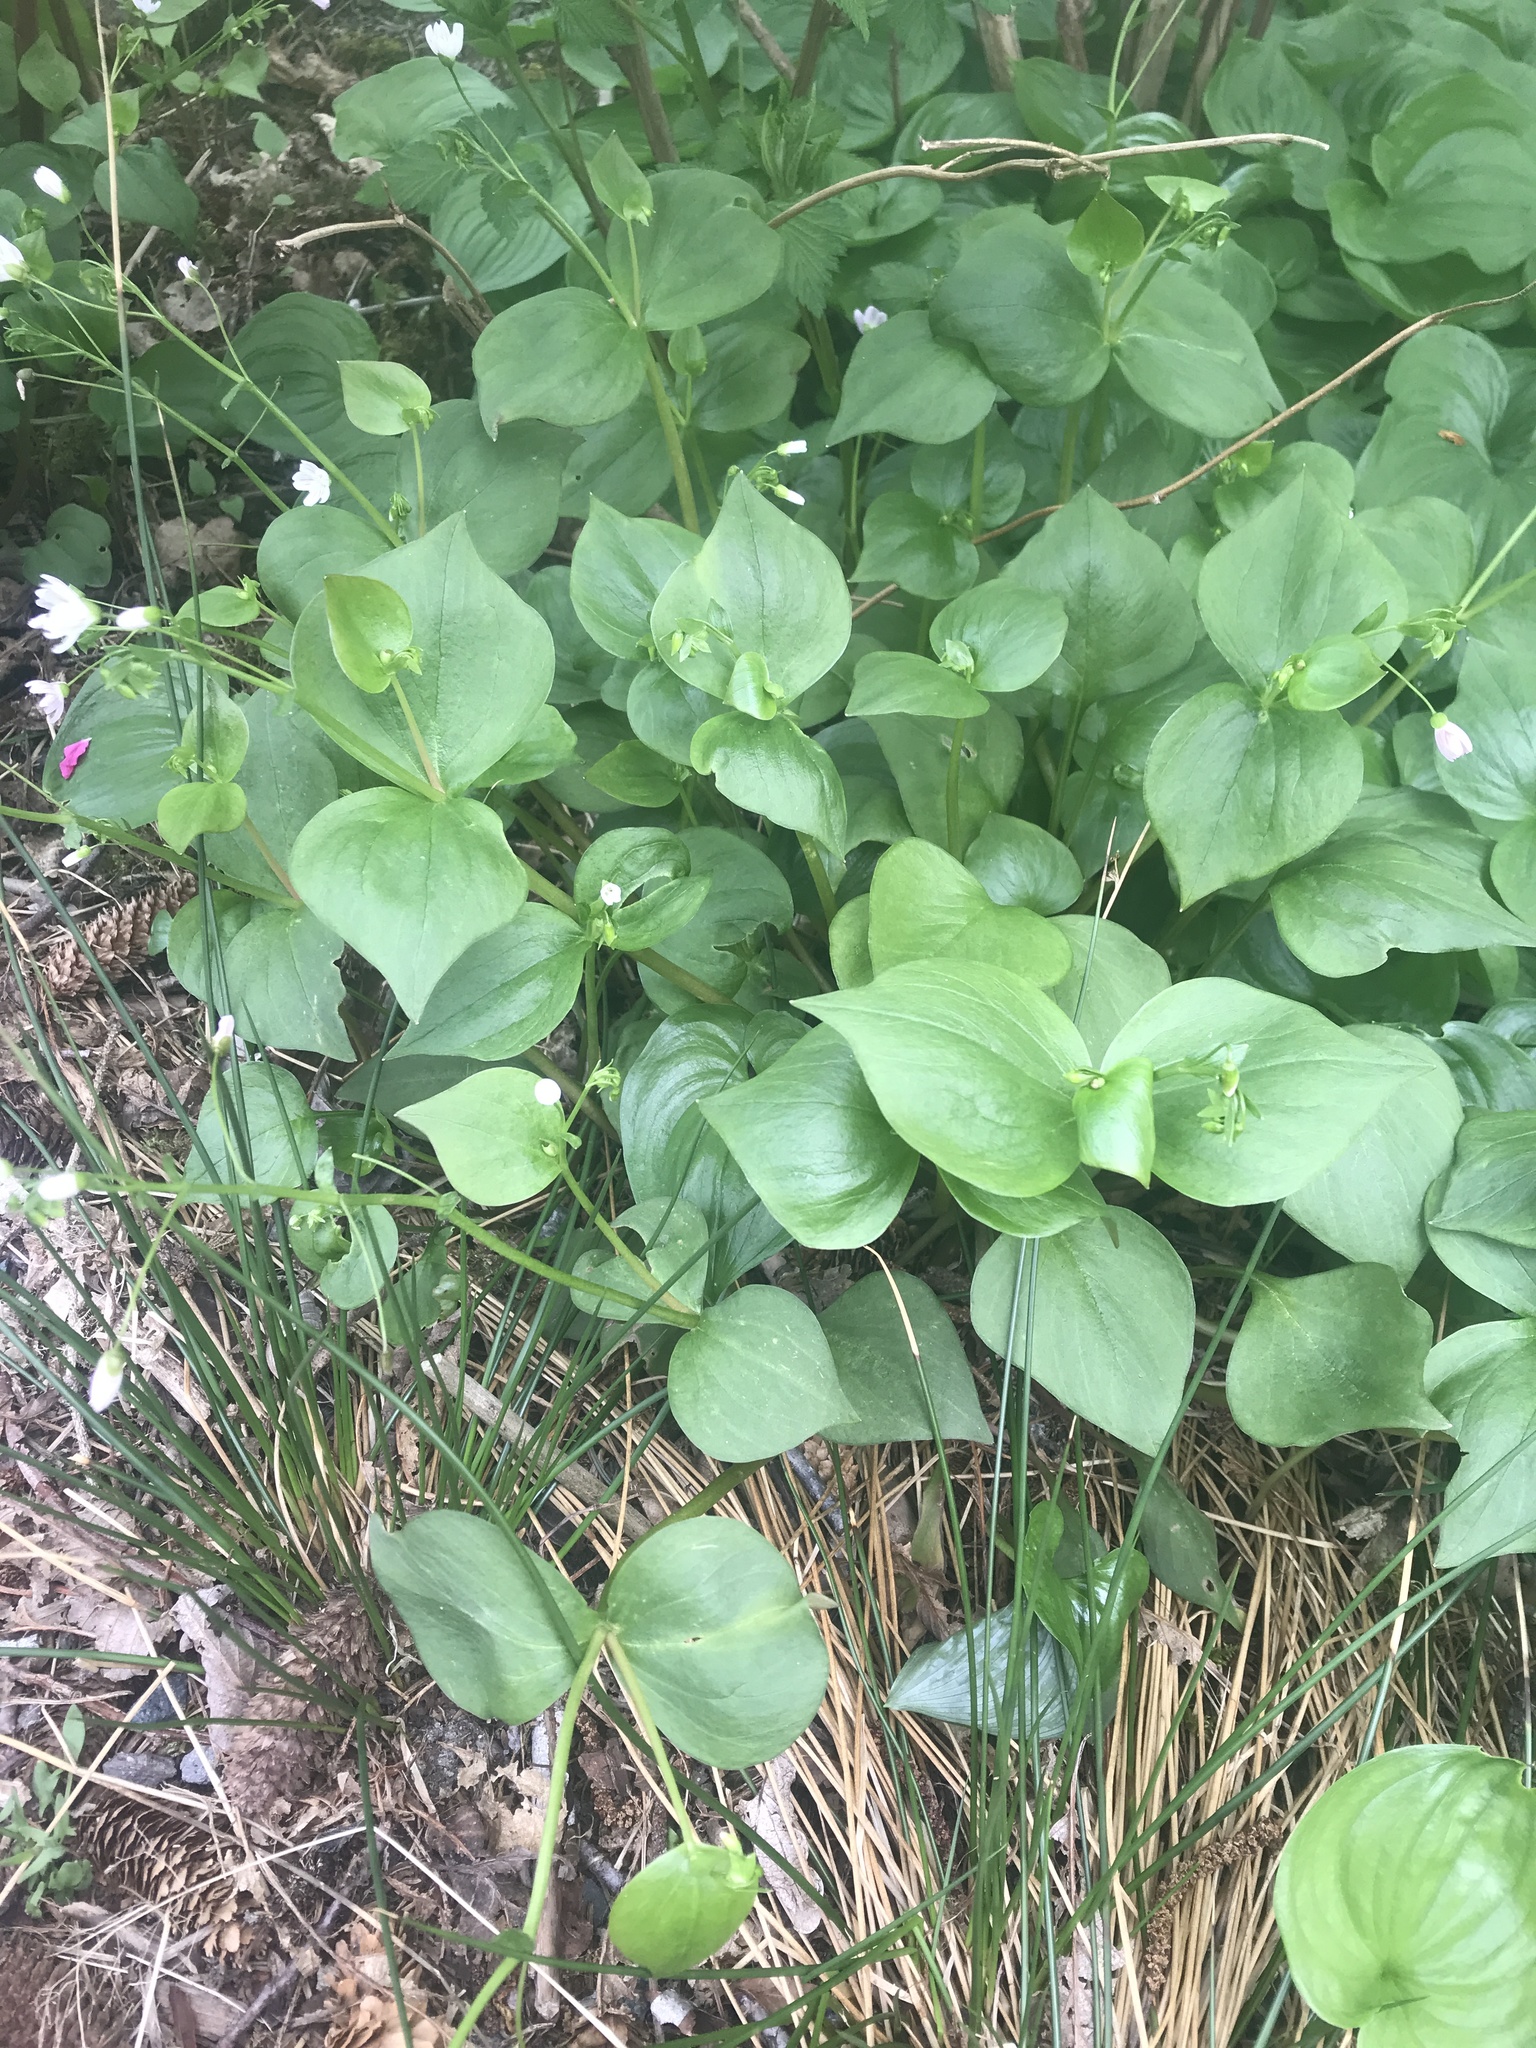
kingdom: Plantae
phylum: Tracheophyta
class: Magnoliopsida
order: Caryophyllales
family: Montiaceae
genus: Claytonia
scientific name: Claytonia sibirica
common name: Pink purslane
